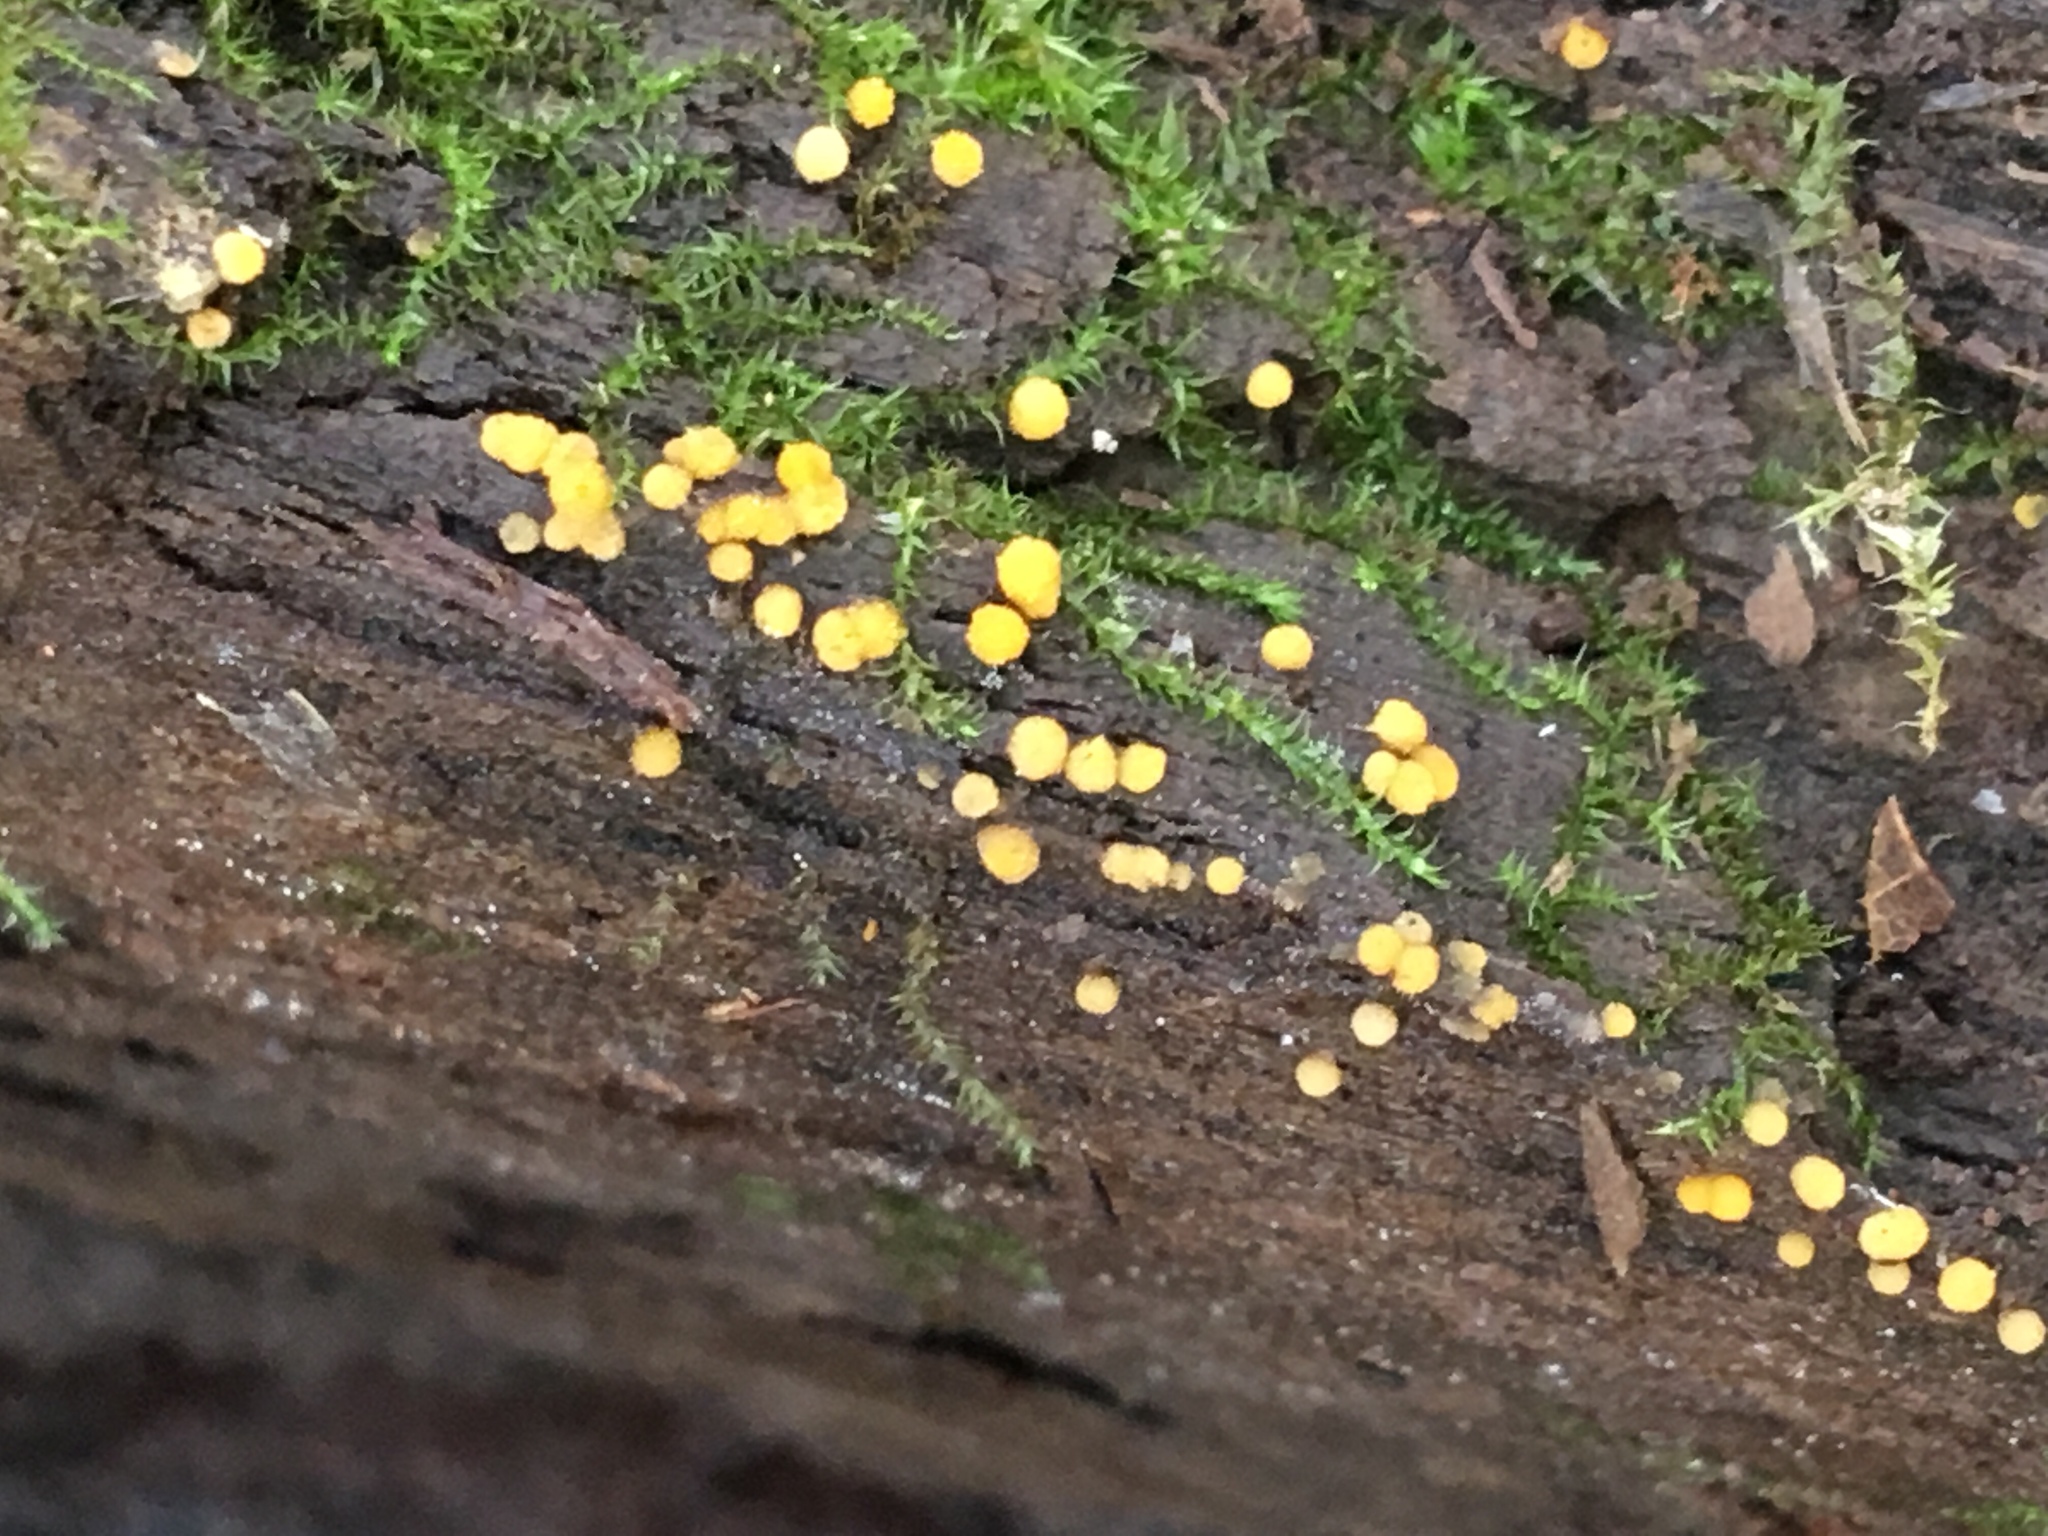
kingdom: Fungi
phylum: Ascomycota
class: Pezizomycetes
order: Pezizales
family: Pyronemataceae
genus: Sphaerosporium
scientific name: Sphaerosporium lignatile
